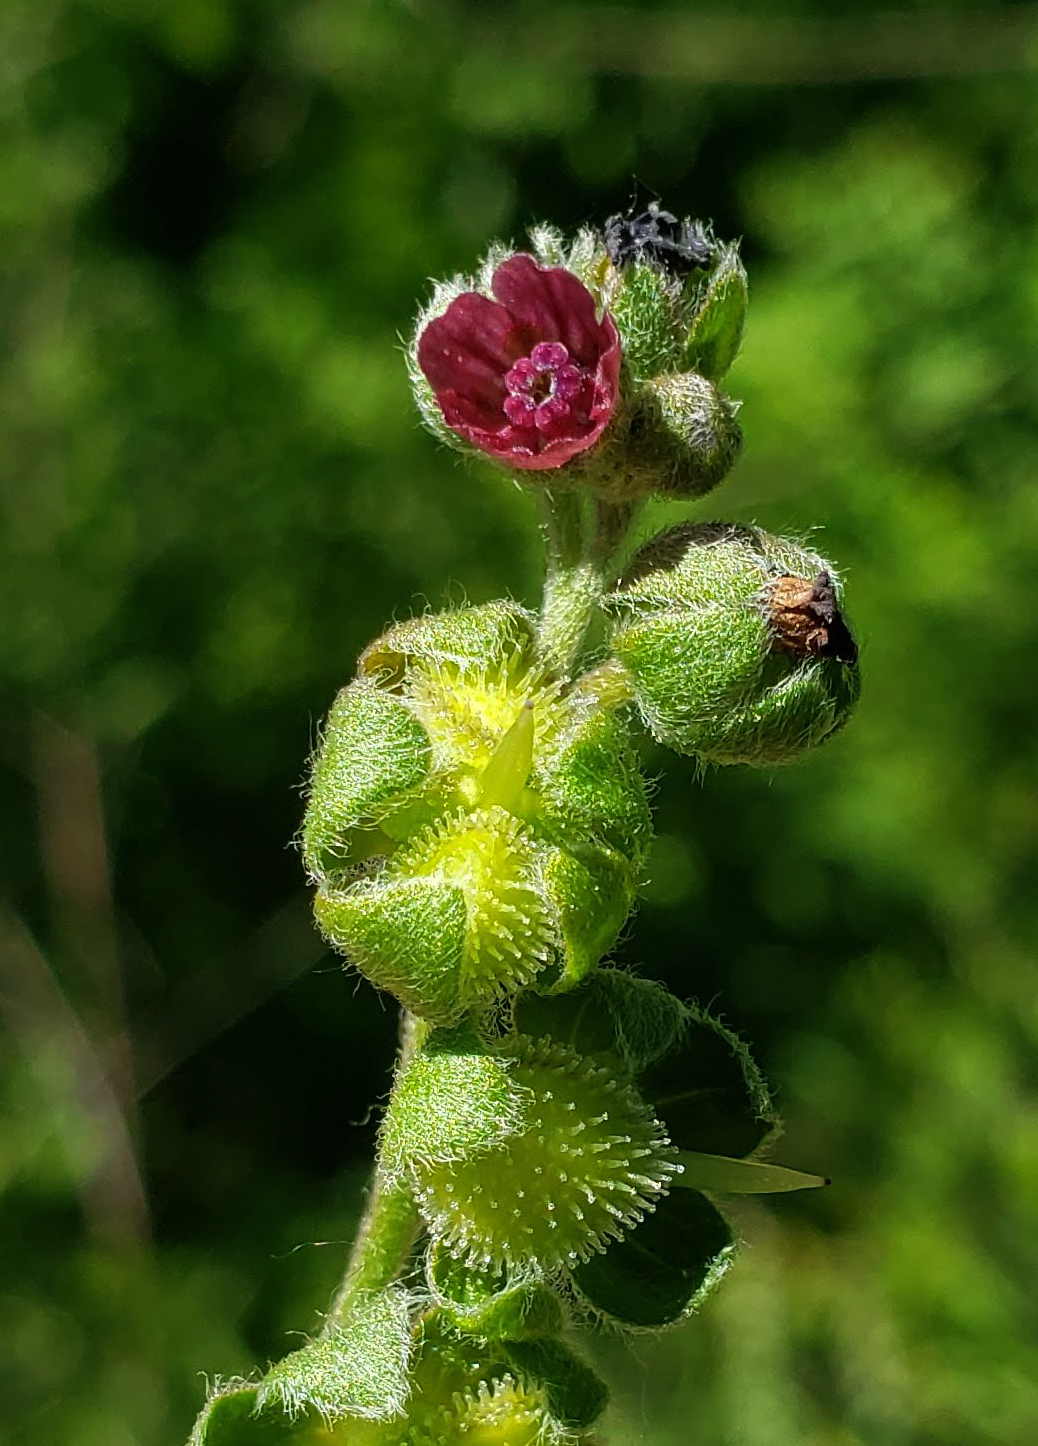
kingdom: Plantae
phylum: Tracheophyta
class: Magnoliopsida
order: Boraginales
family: Boraginaceae
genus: Cynoglossum
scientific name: Cynoglossum officinale
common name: Hound's-tongue
